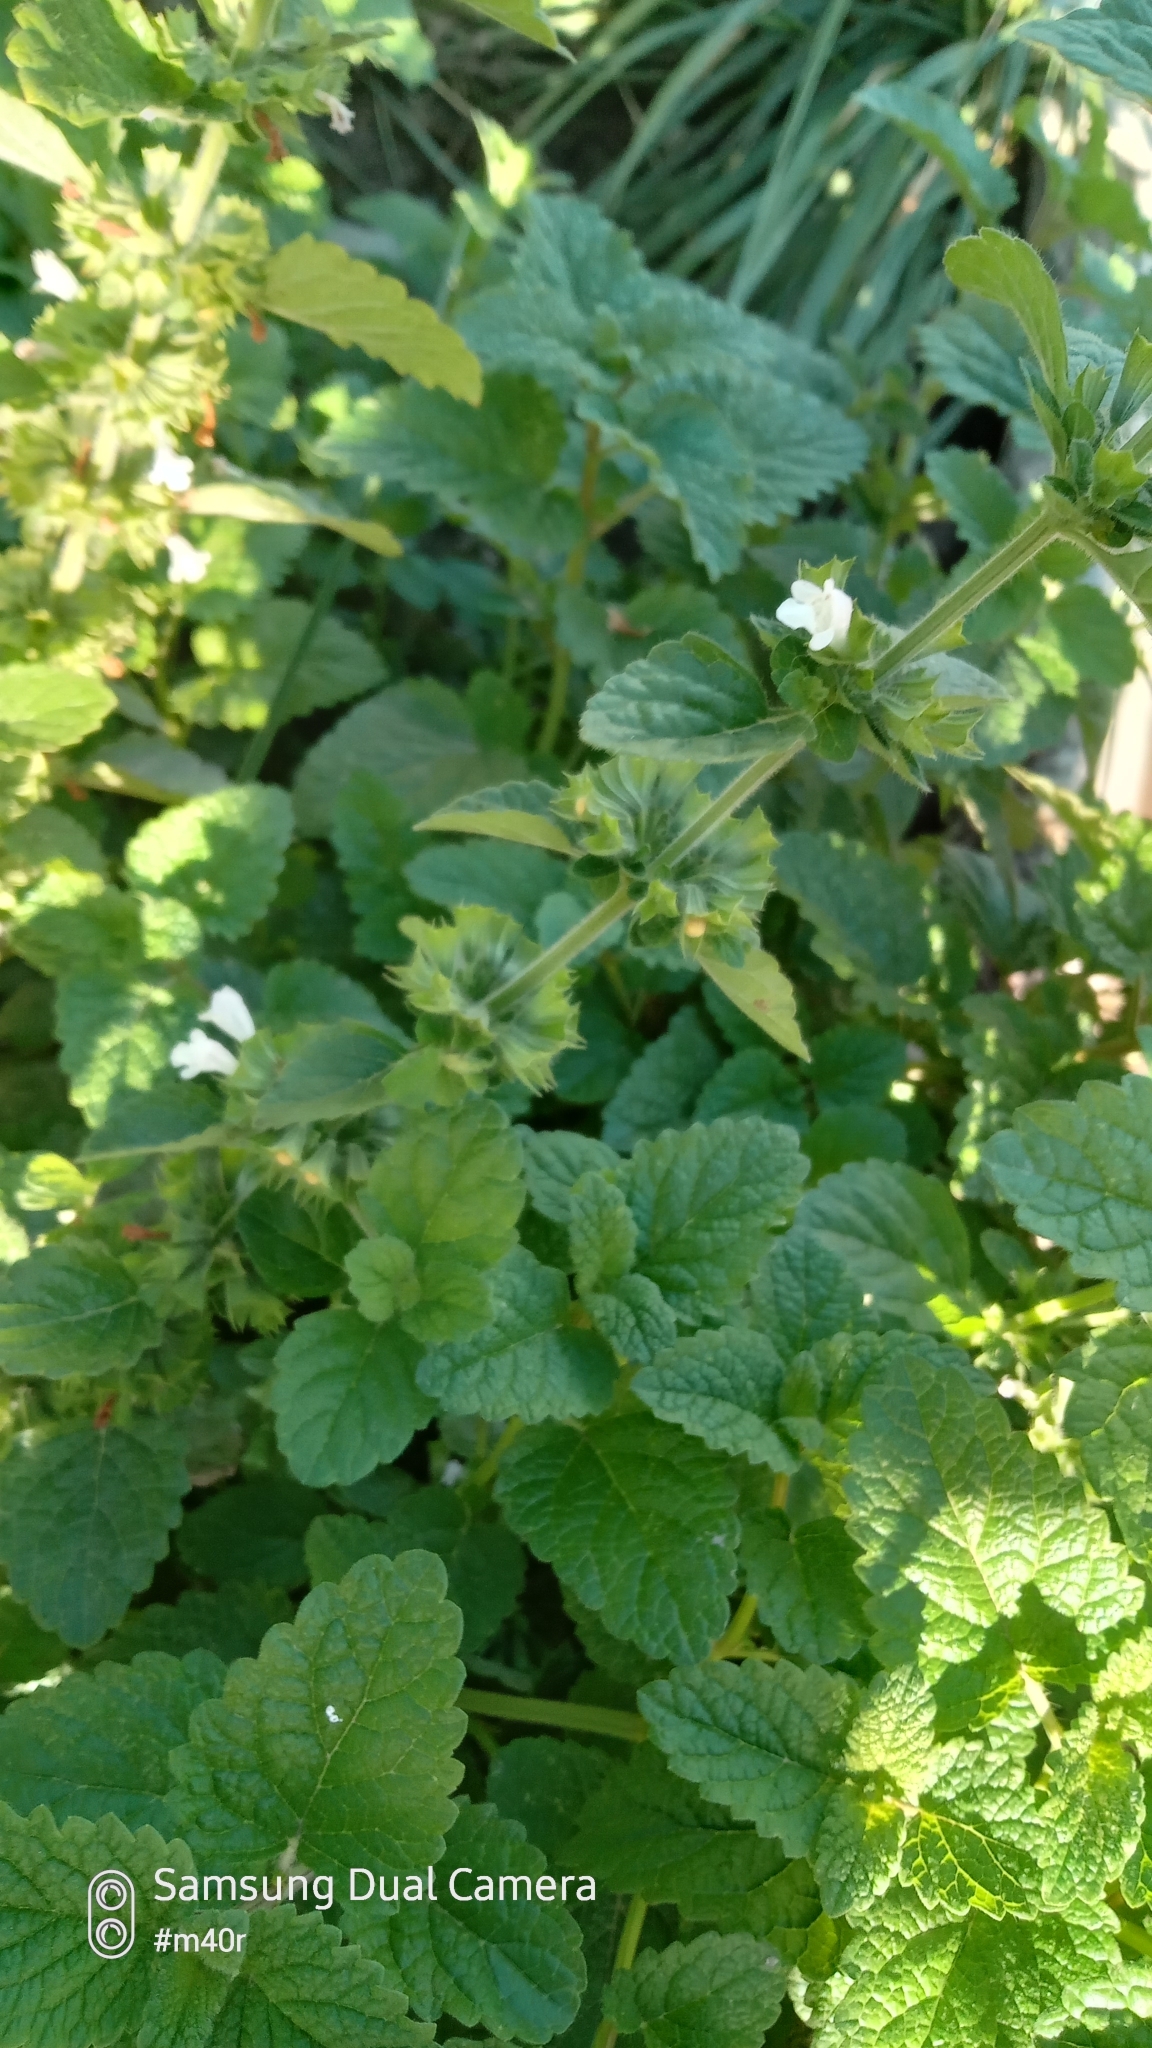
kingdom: Plantae
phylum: Tracheophyta
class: Magnoliopsida
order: Lamiales
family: Lamiaceae
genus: Melissa
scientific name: Melissa officinalis
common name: Balm
